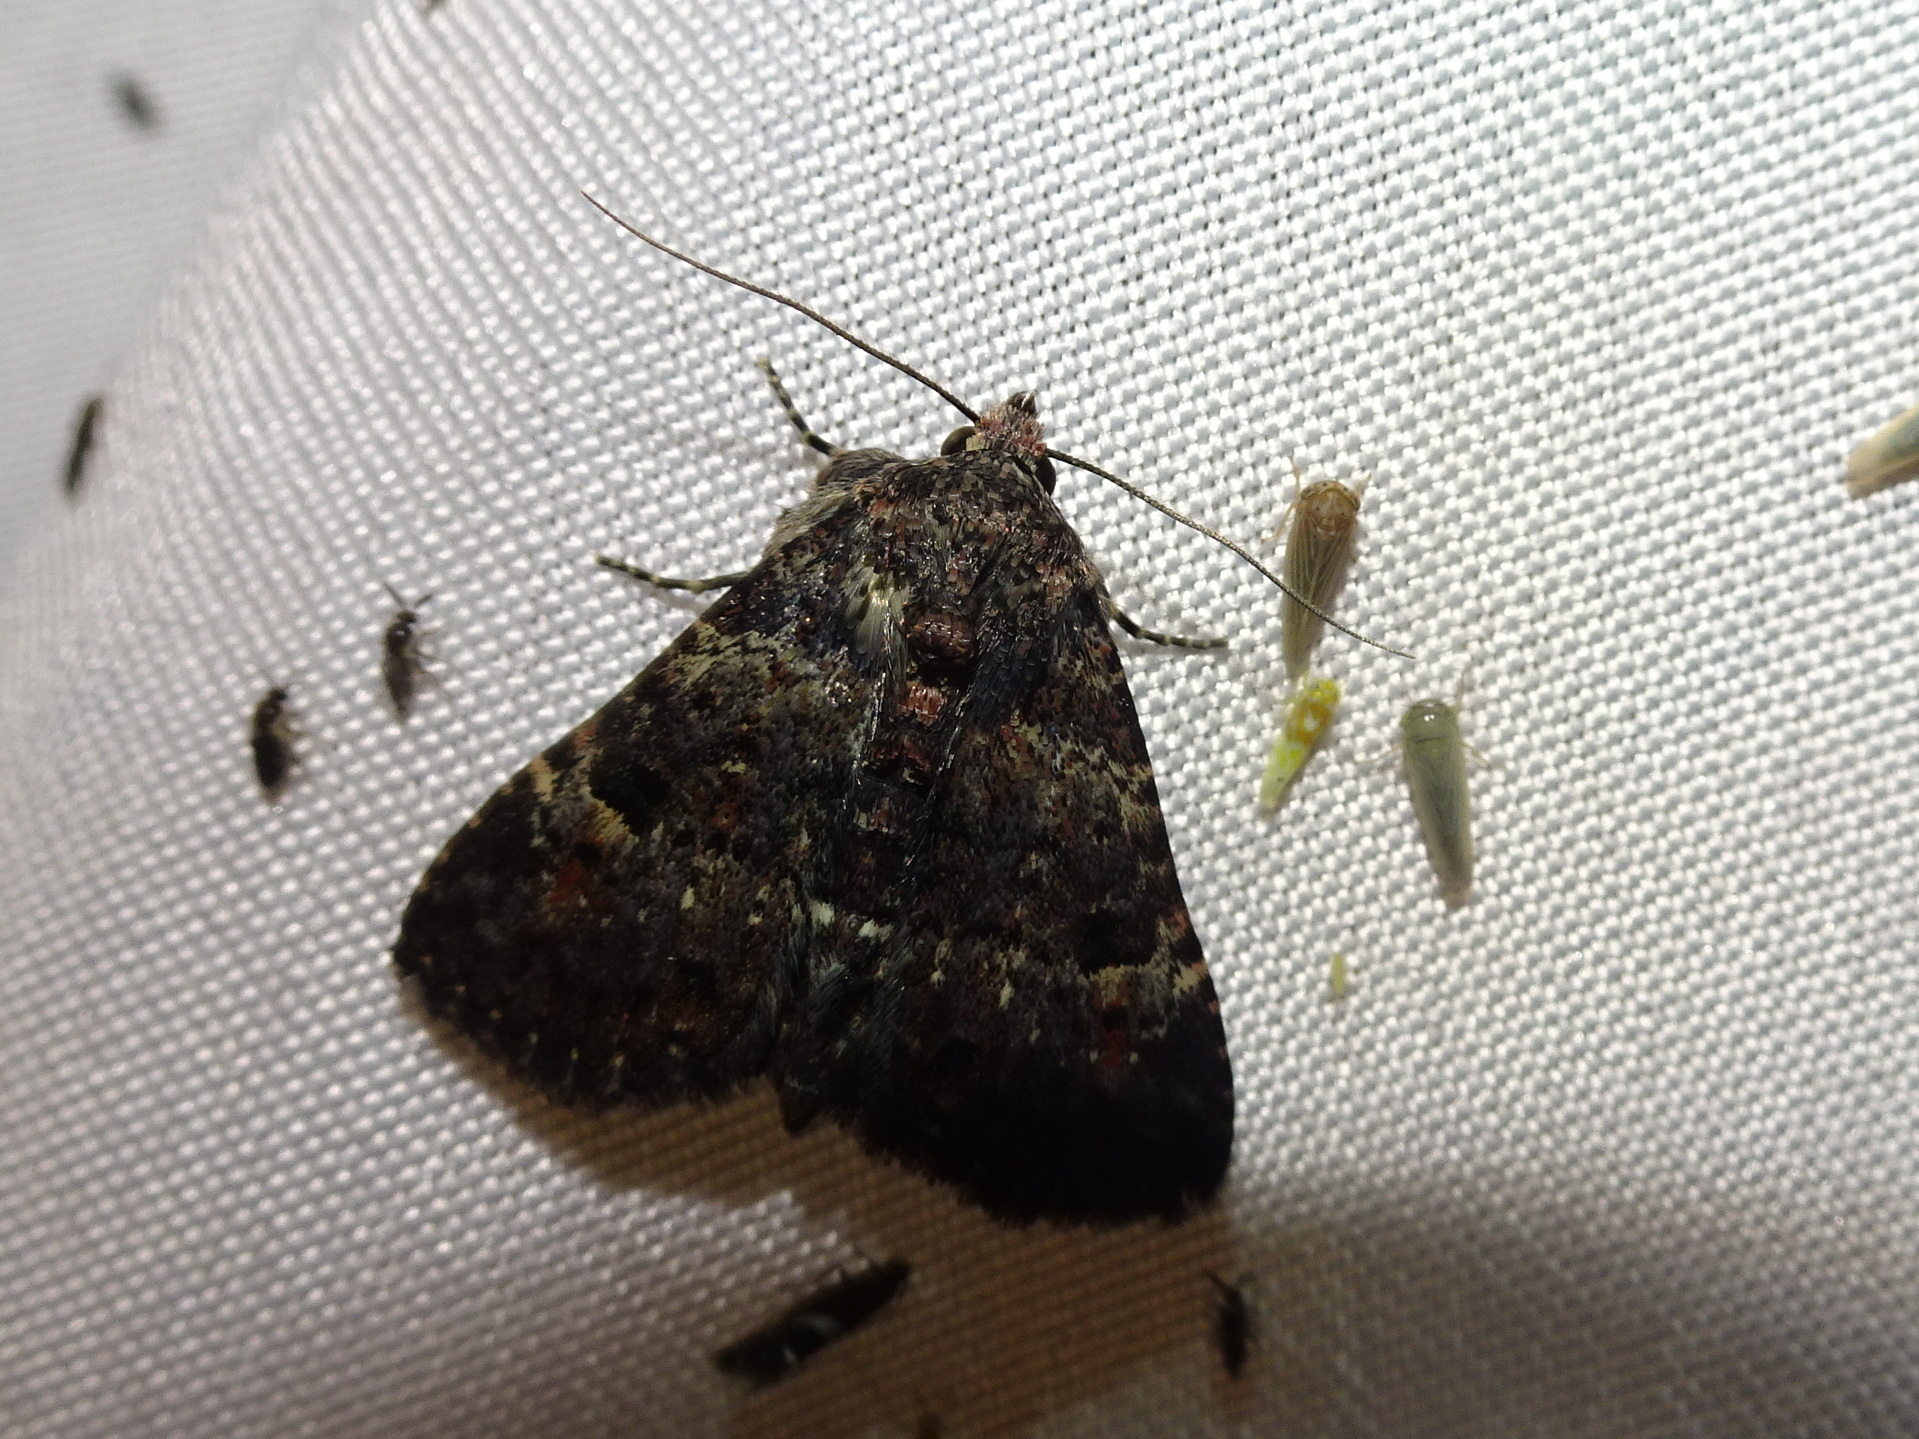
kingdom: Animalia
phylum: Arthropoda
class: Insecta
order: Lepidoptera
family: Erebidae
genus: Metalectra
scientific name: Metalectra discalis
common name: Common fungus moth
